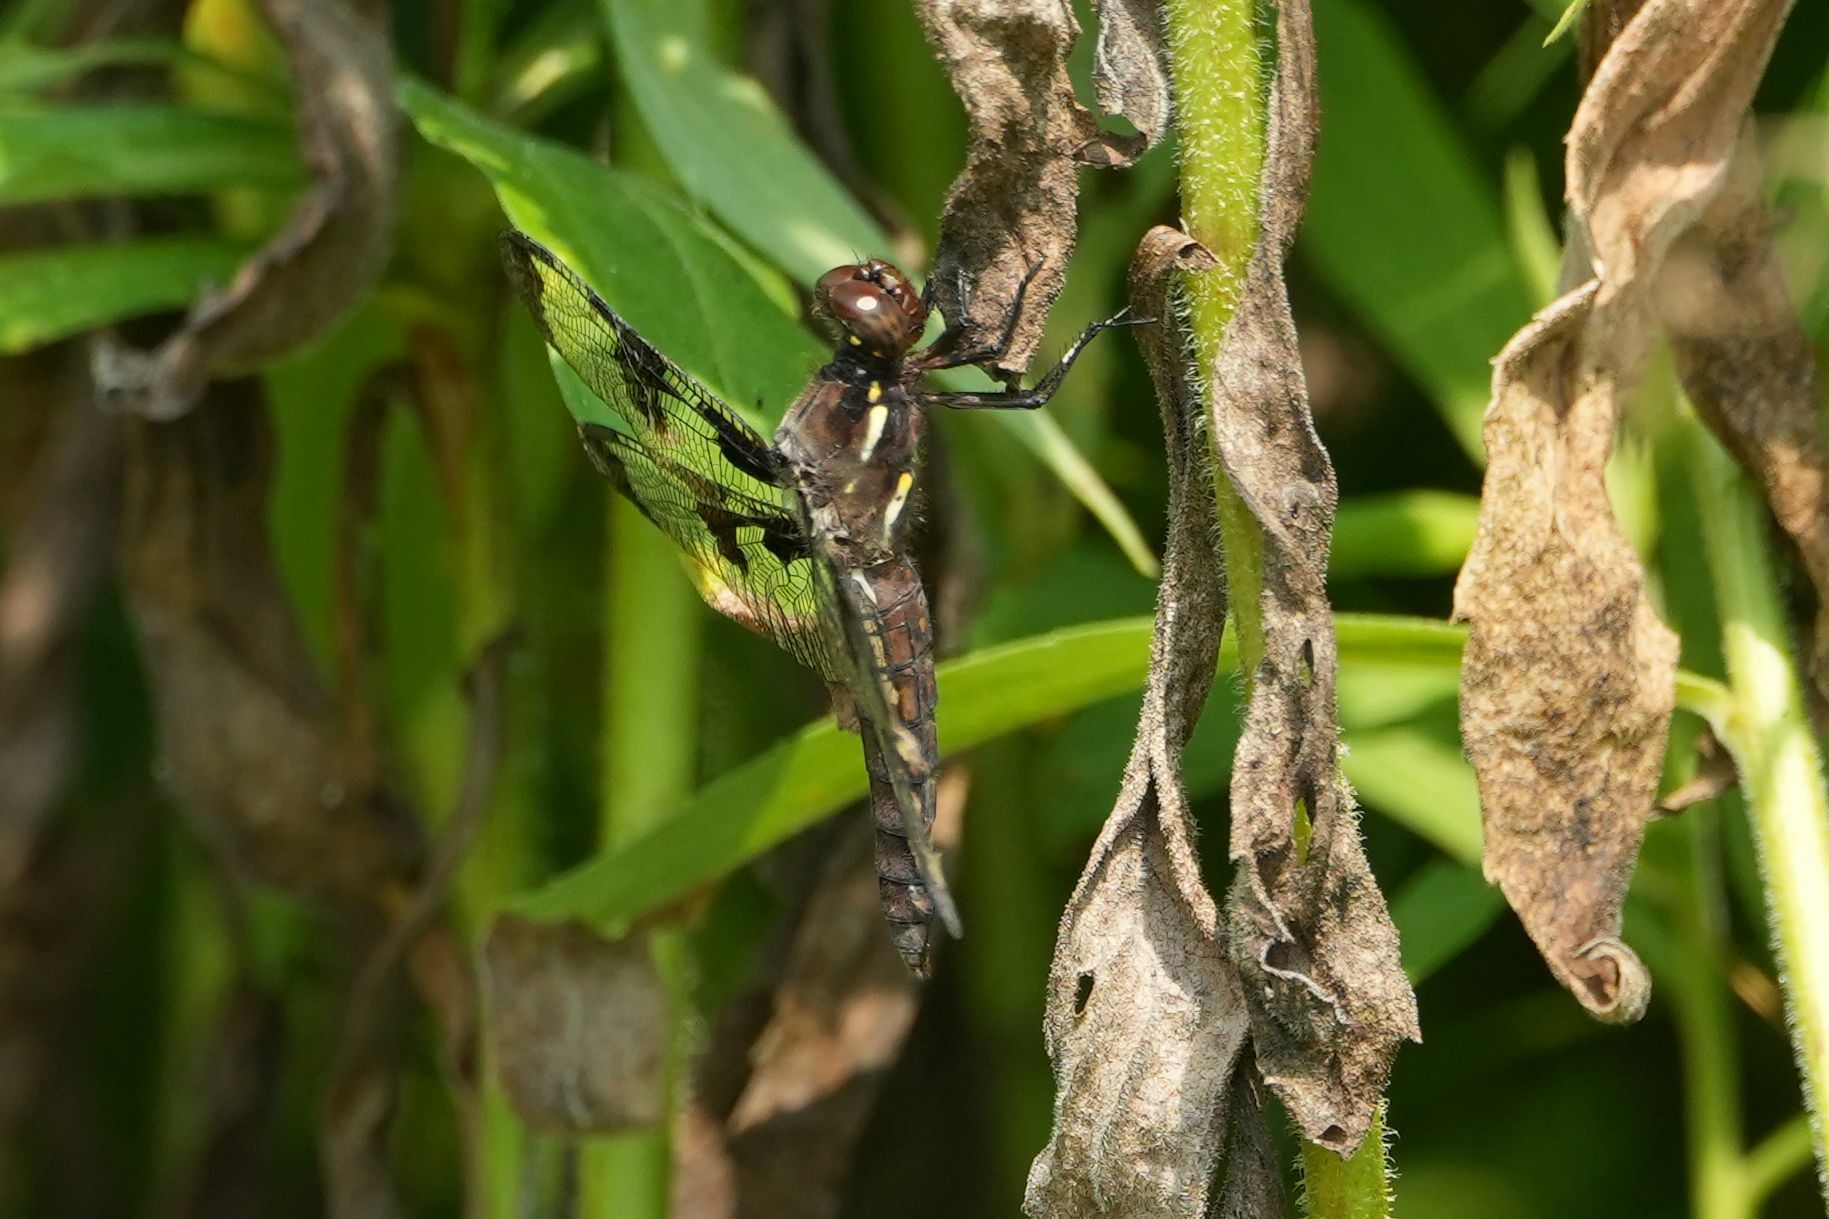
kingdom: Animalia
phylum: Arthropoda
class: Insecta
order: Odonata
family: Libellulidae
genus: Plathemis
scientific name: Plathemis lydia
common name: Common whitetail
